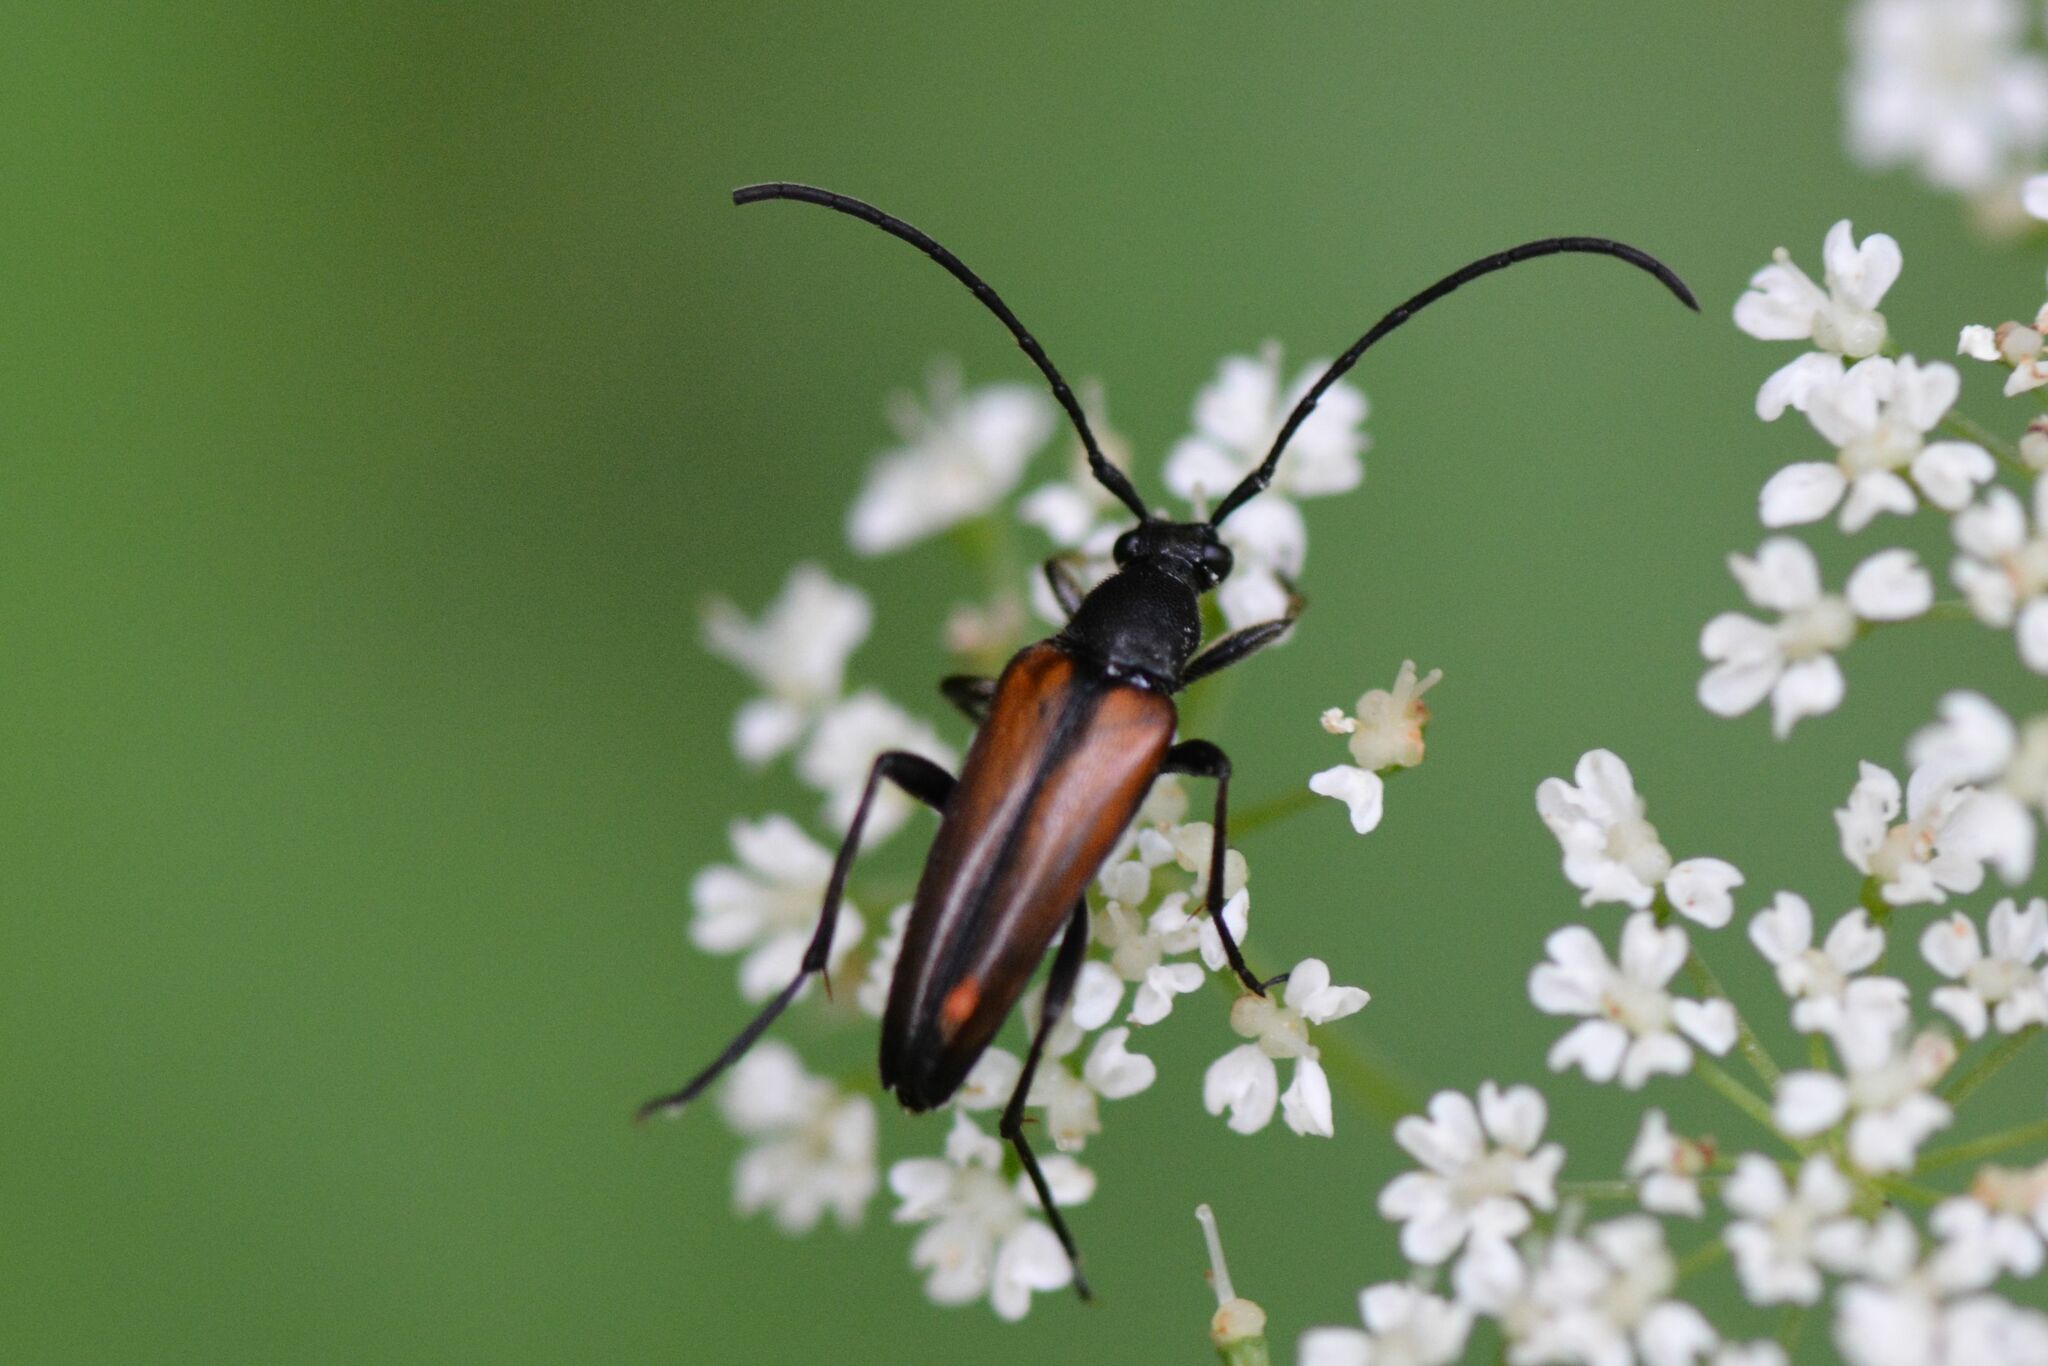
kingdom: Animalia
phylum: Arthropoda
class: Insecta
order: Coleoptera
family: Cerambycidae
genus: Stenurella
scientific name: Stenurella melanura
